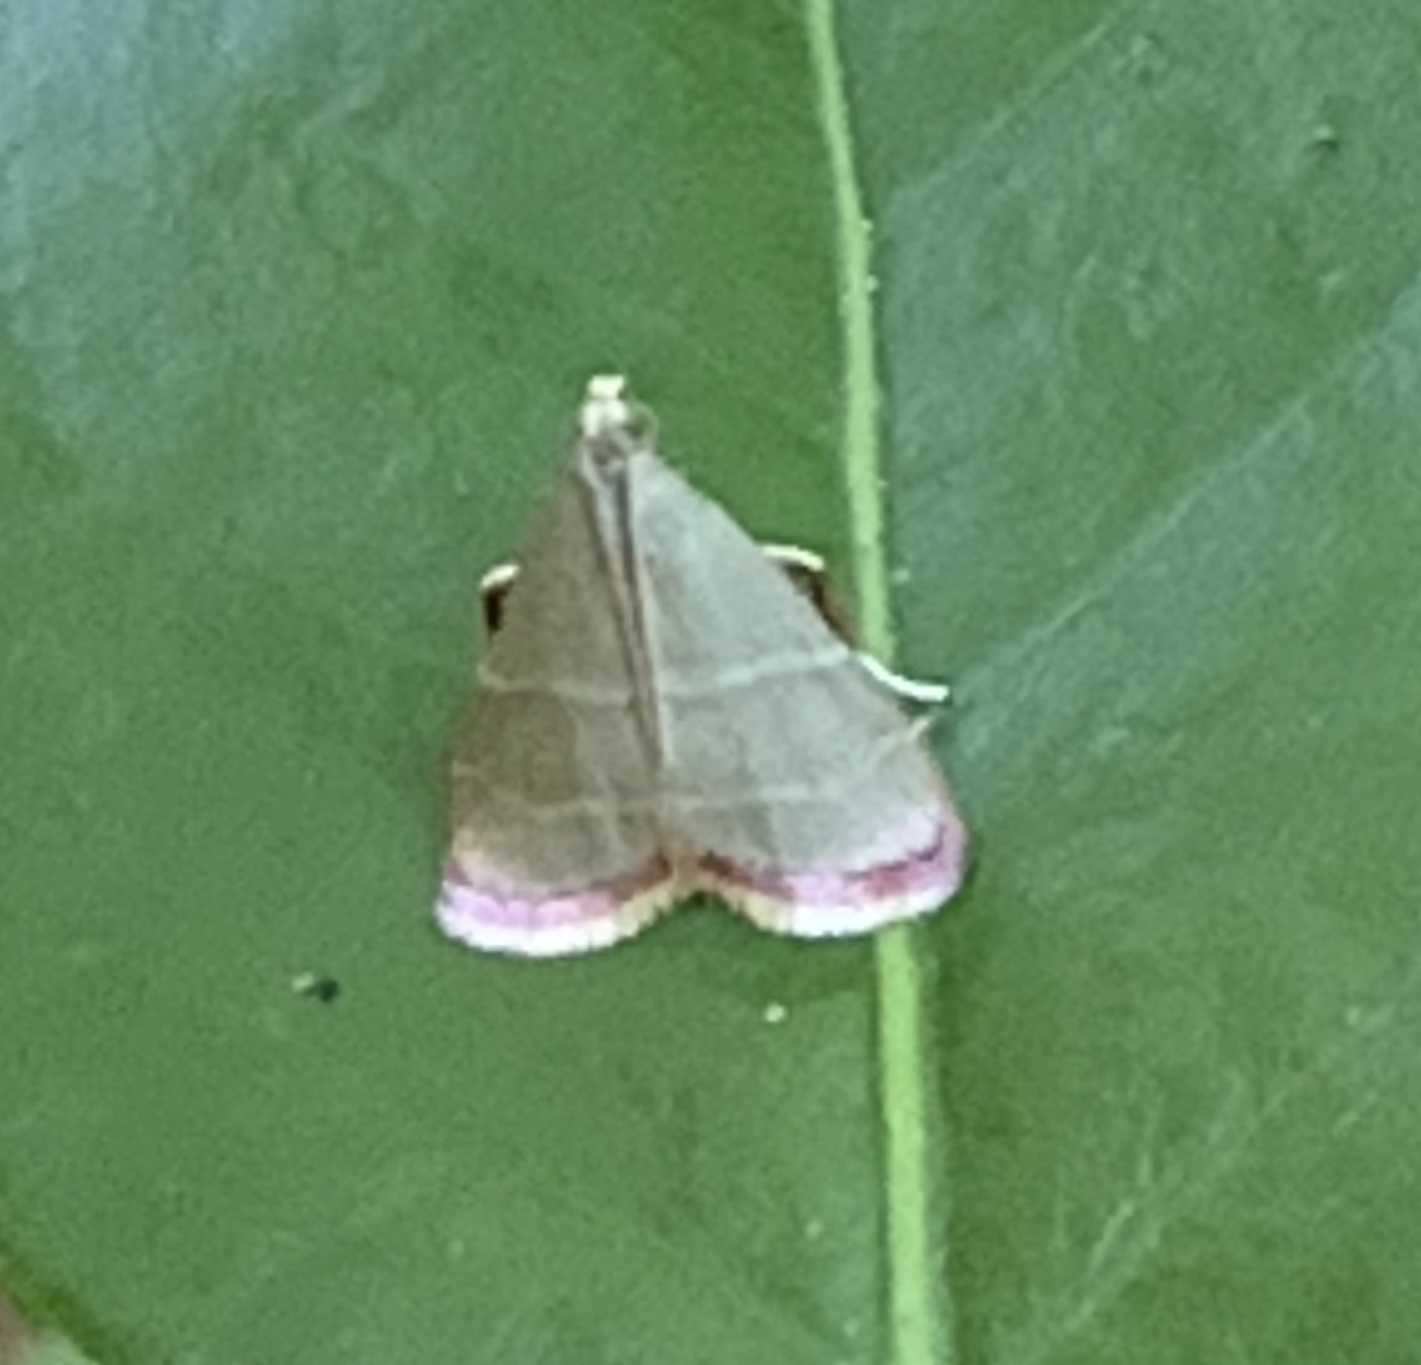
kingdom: Animalia
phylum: Arthropoda
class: Insecta
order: Lepidoptera
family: Pyralidae
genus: Arta
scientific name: Arta olivalis
